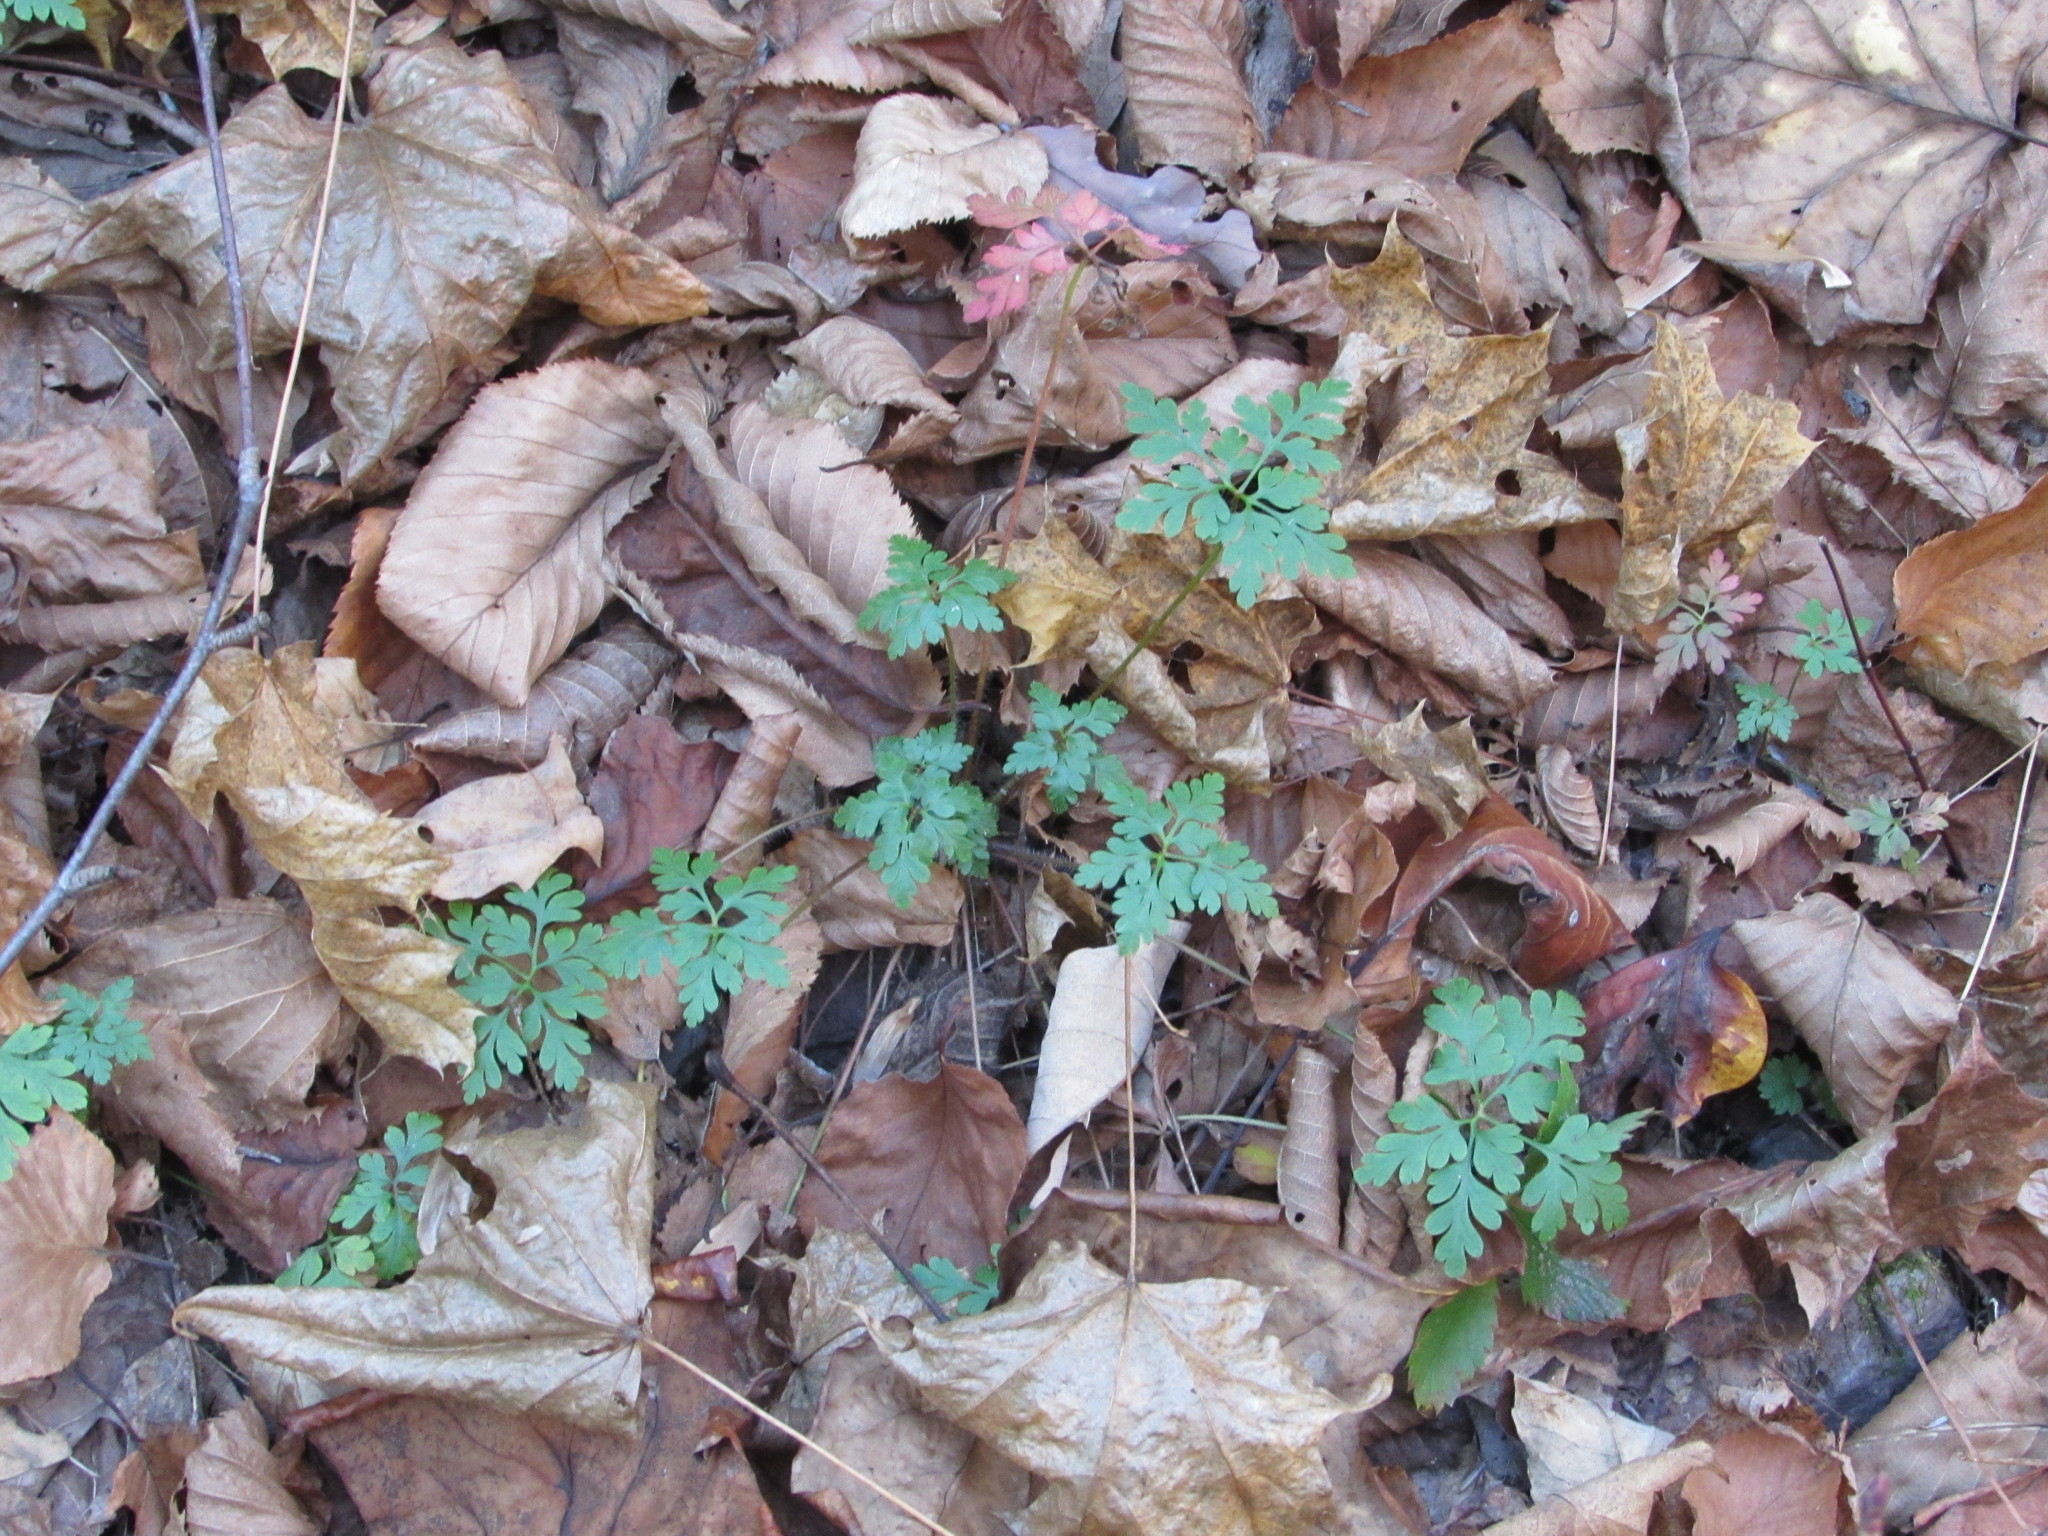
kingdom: Plantae
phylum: Tracheophyta
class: Magnoliopsida
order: Geraniales
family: Geraniaceae
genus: Geranium
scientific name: Geranium robertianum
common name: Herb-robert
